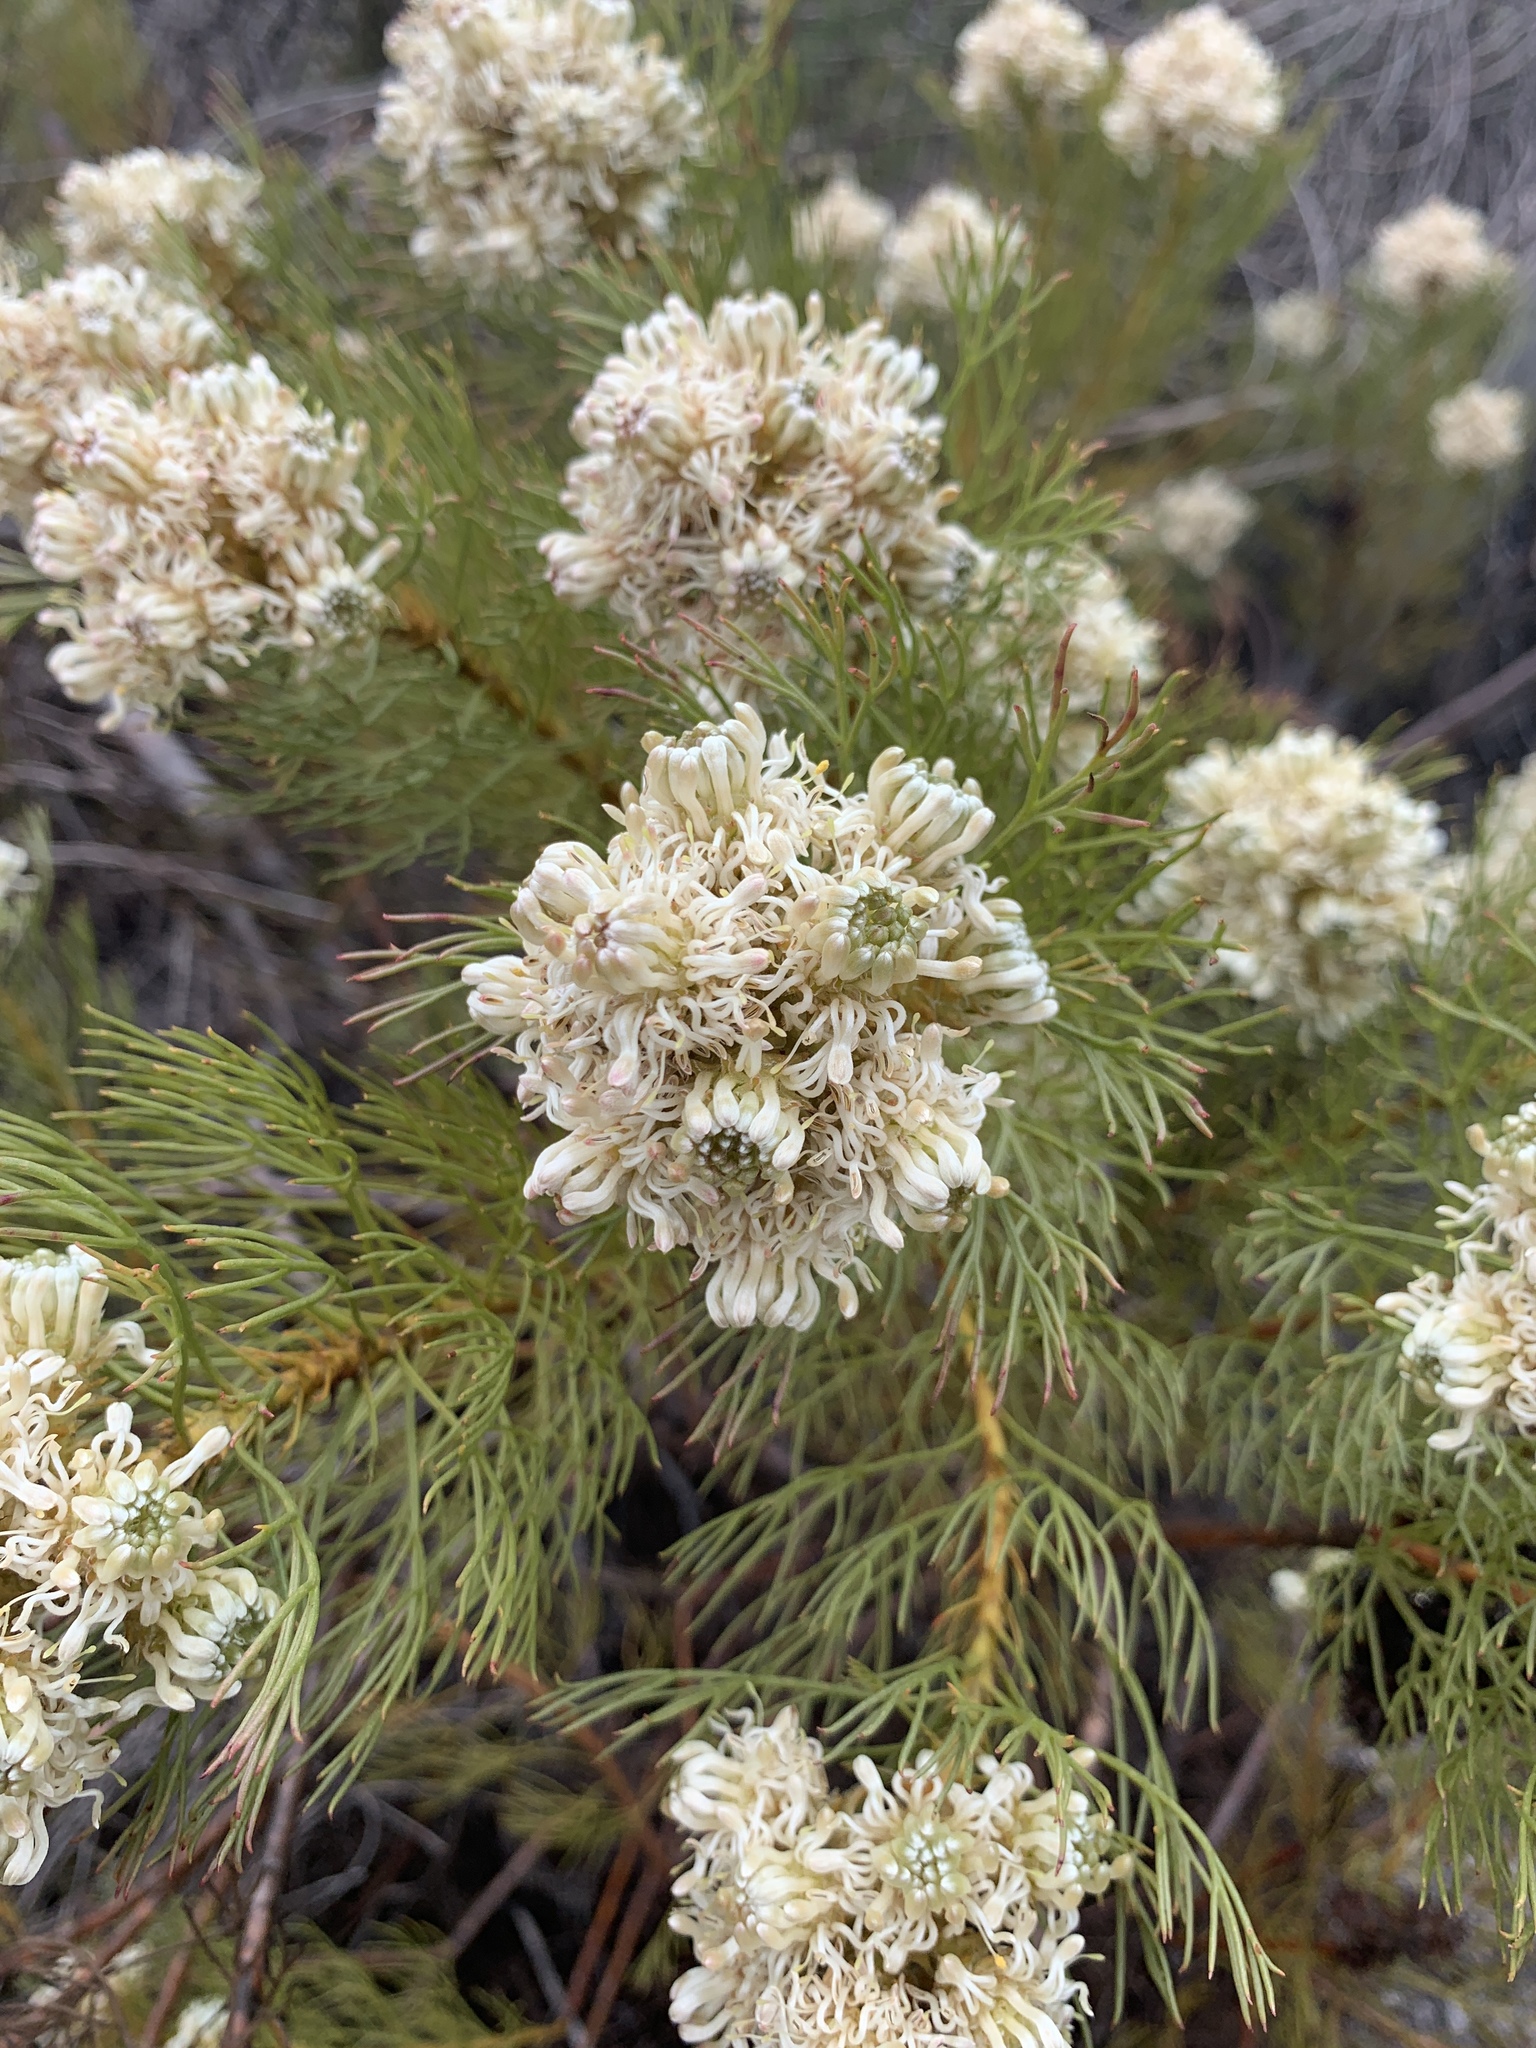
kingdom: Plantae
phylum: Tracheophyta
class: Magnoliopsida
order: Proteales
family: Proteaceae
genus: Serruria
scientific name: Serruria glomerata
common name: Cluster spiderhead
